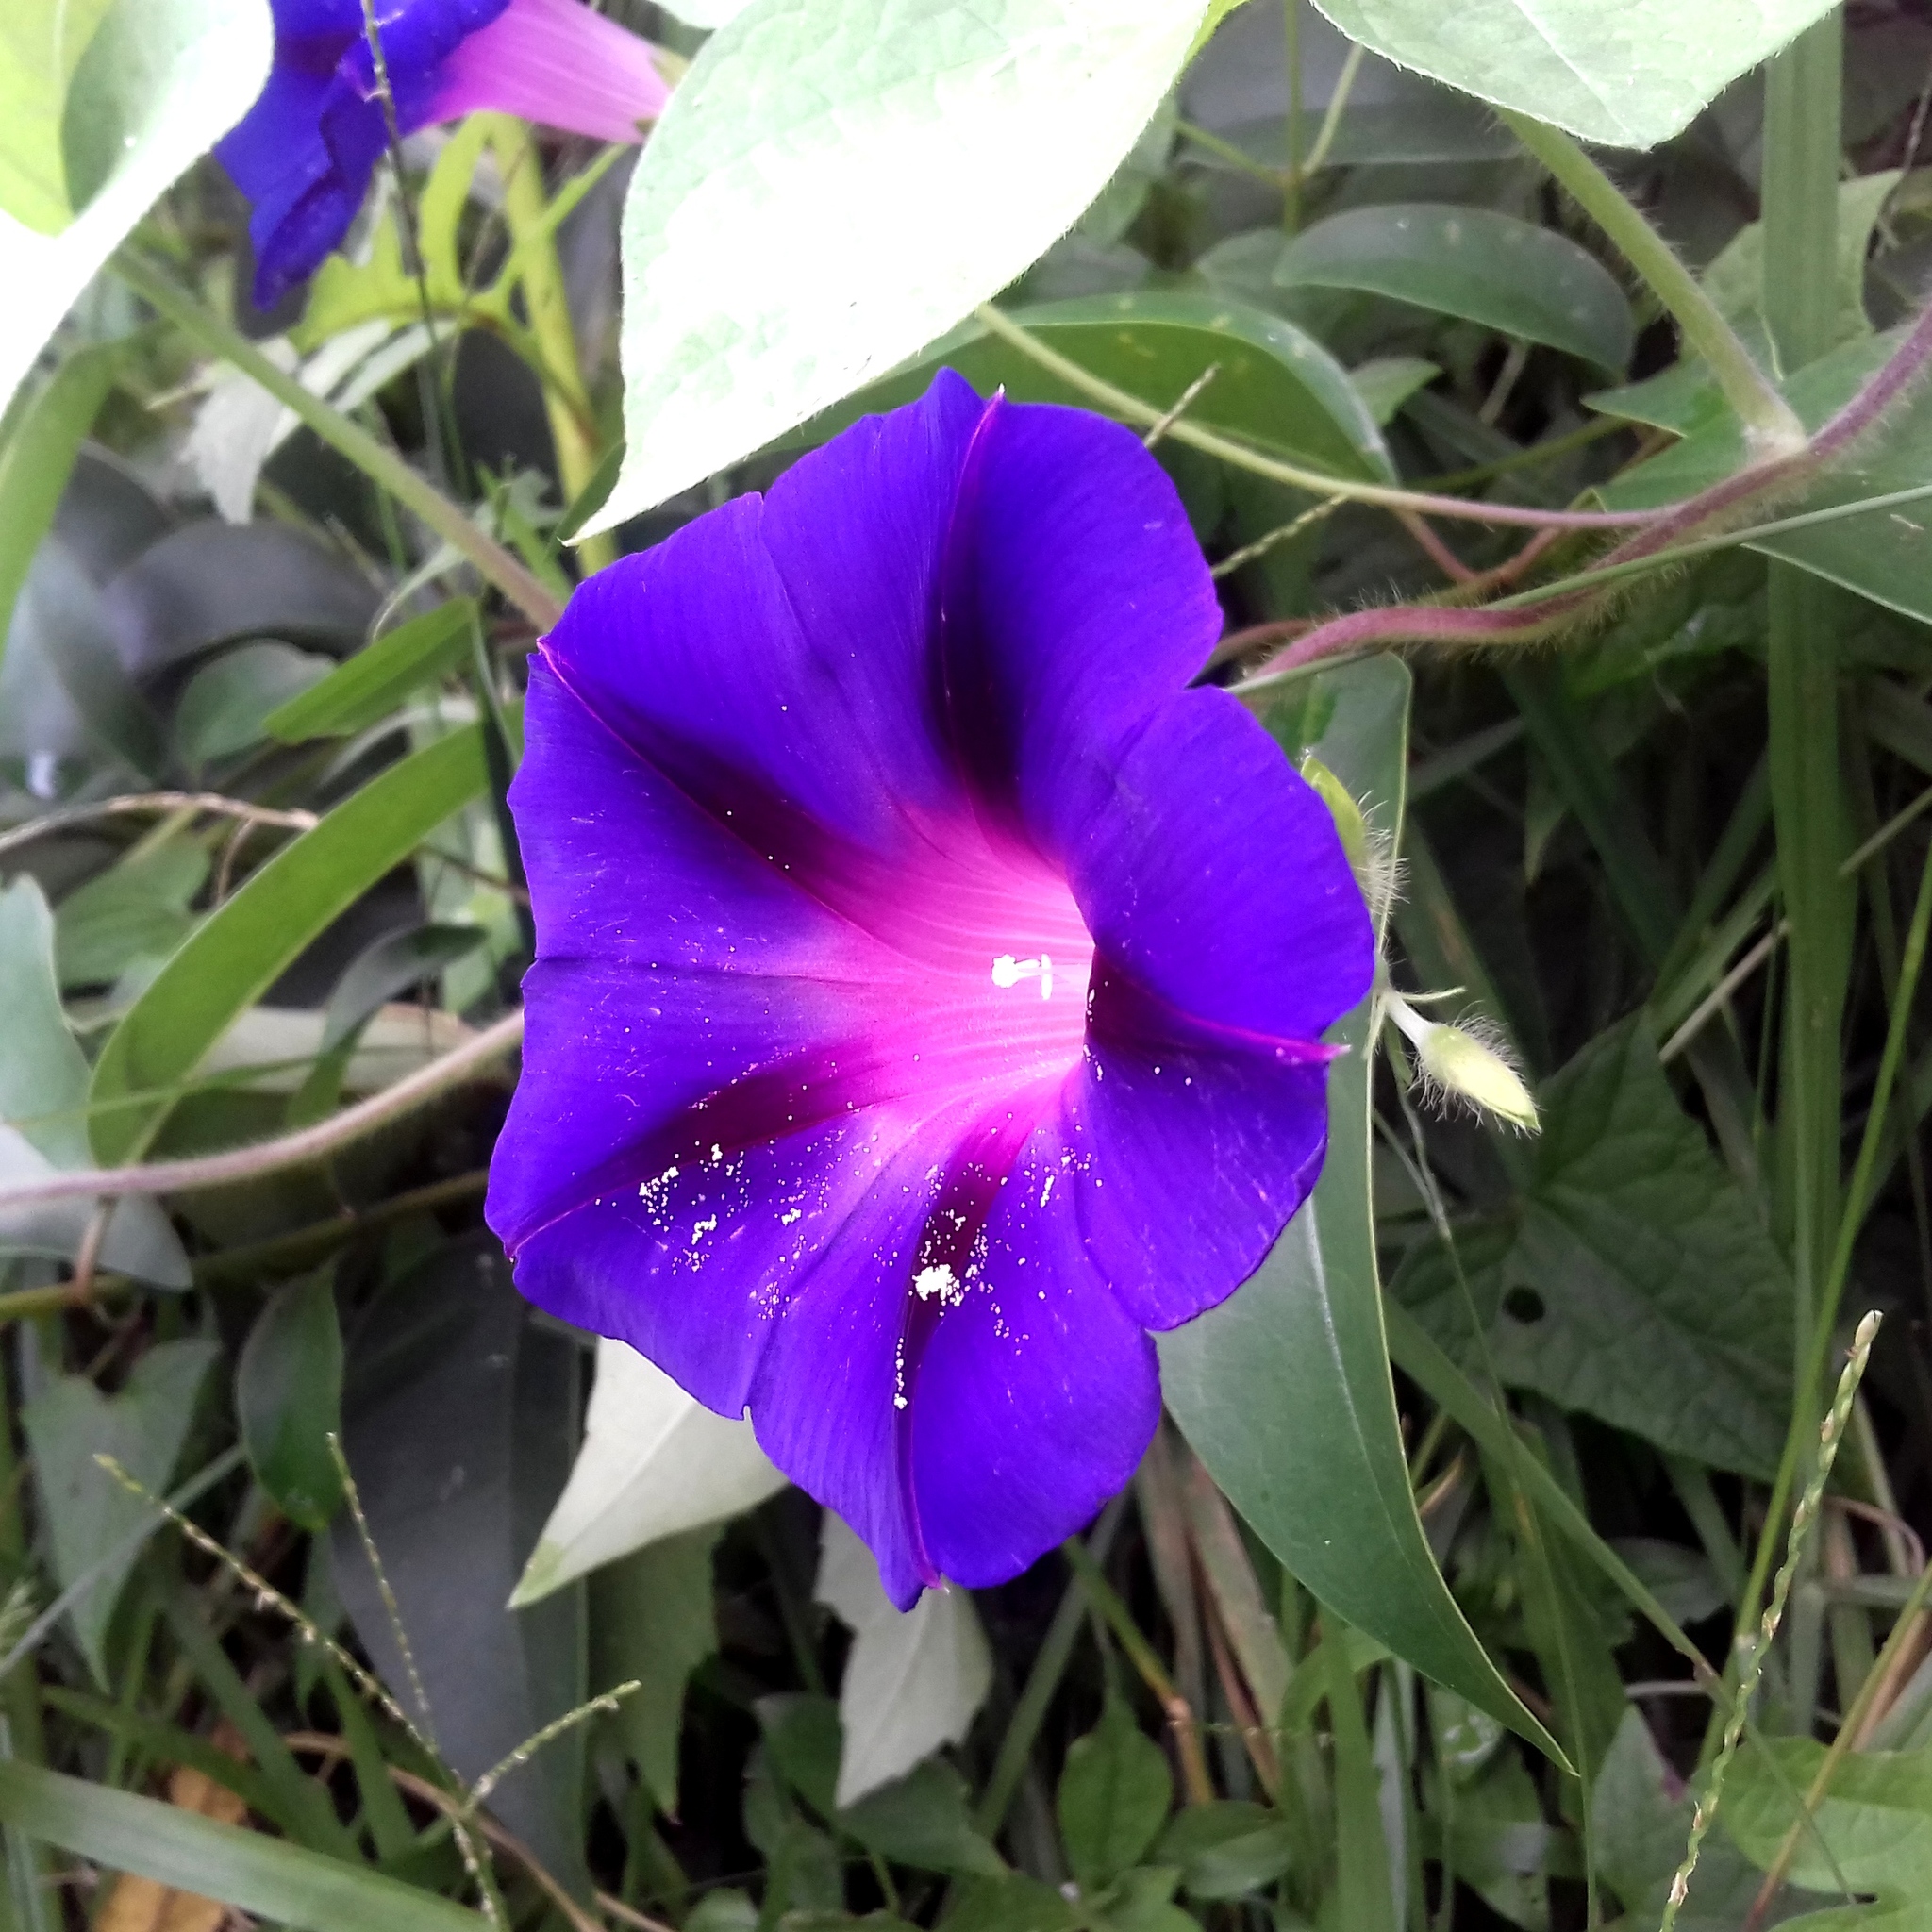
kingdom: Plantae
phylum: Tracheophyta
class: Magnoliopsida
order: Solanales
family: Convolvulaceae
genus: Ipomoea
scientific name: Ipomoea purpurea
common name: Common morning-glory
